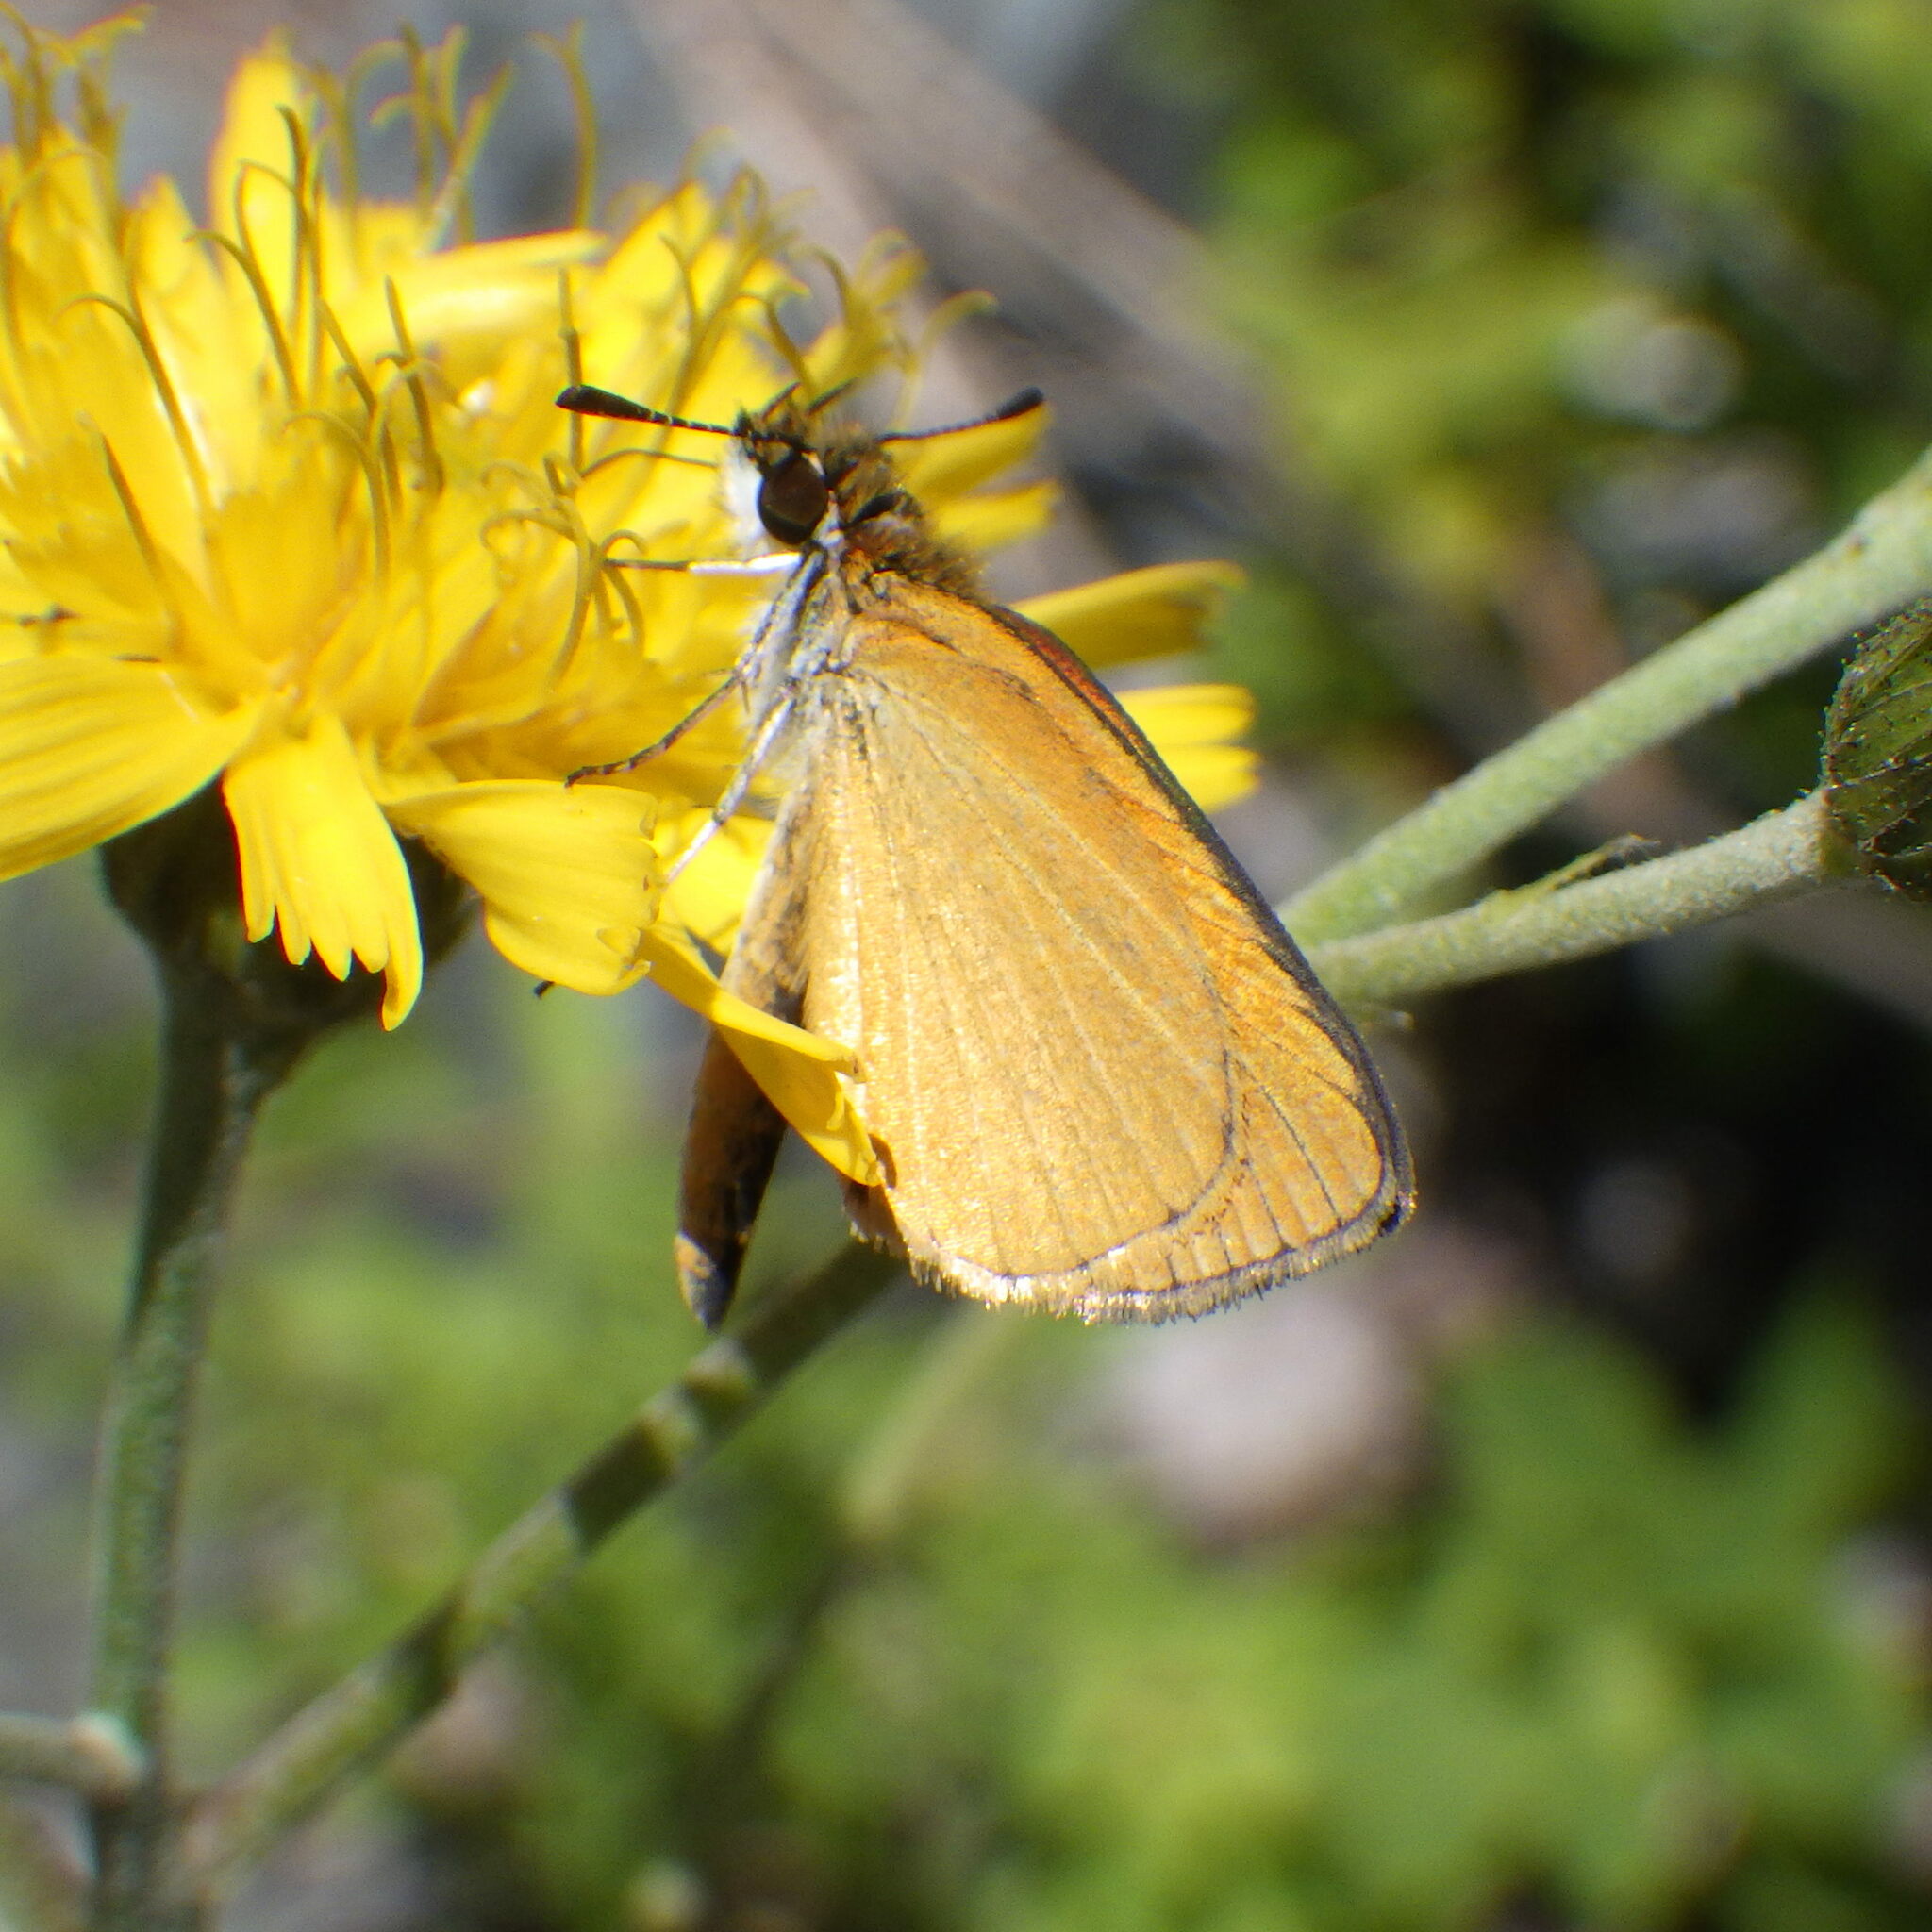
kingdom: Animalia
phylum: Arthropoda
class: Insecta
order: Lepidoptera
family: Hesperiidae
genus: Ancyloxypha
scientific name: Ancyloxypha numitor
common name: Least skipper
